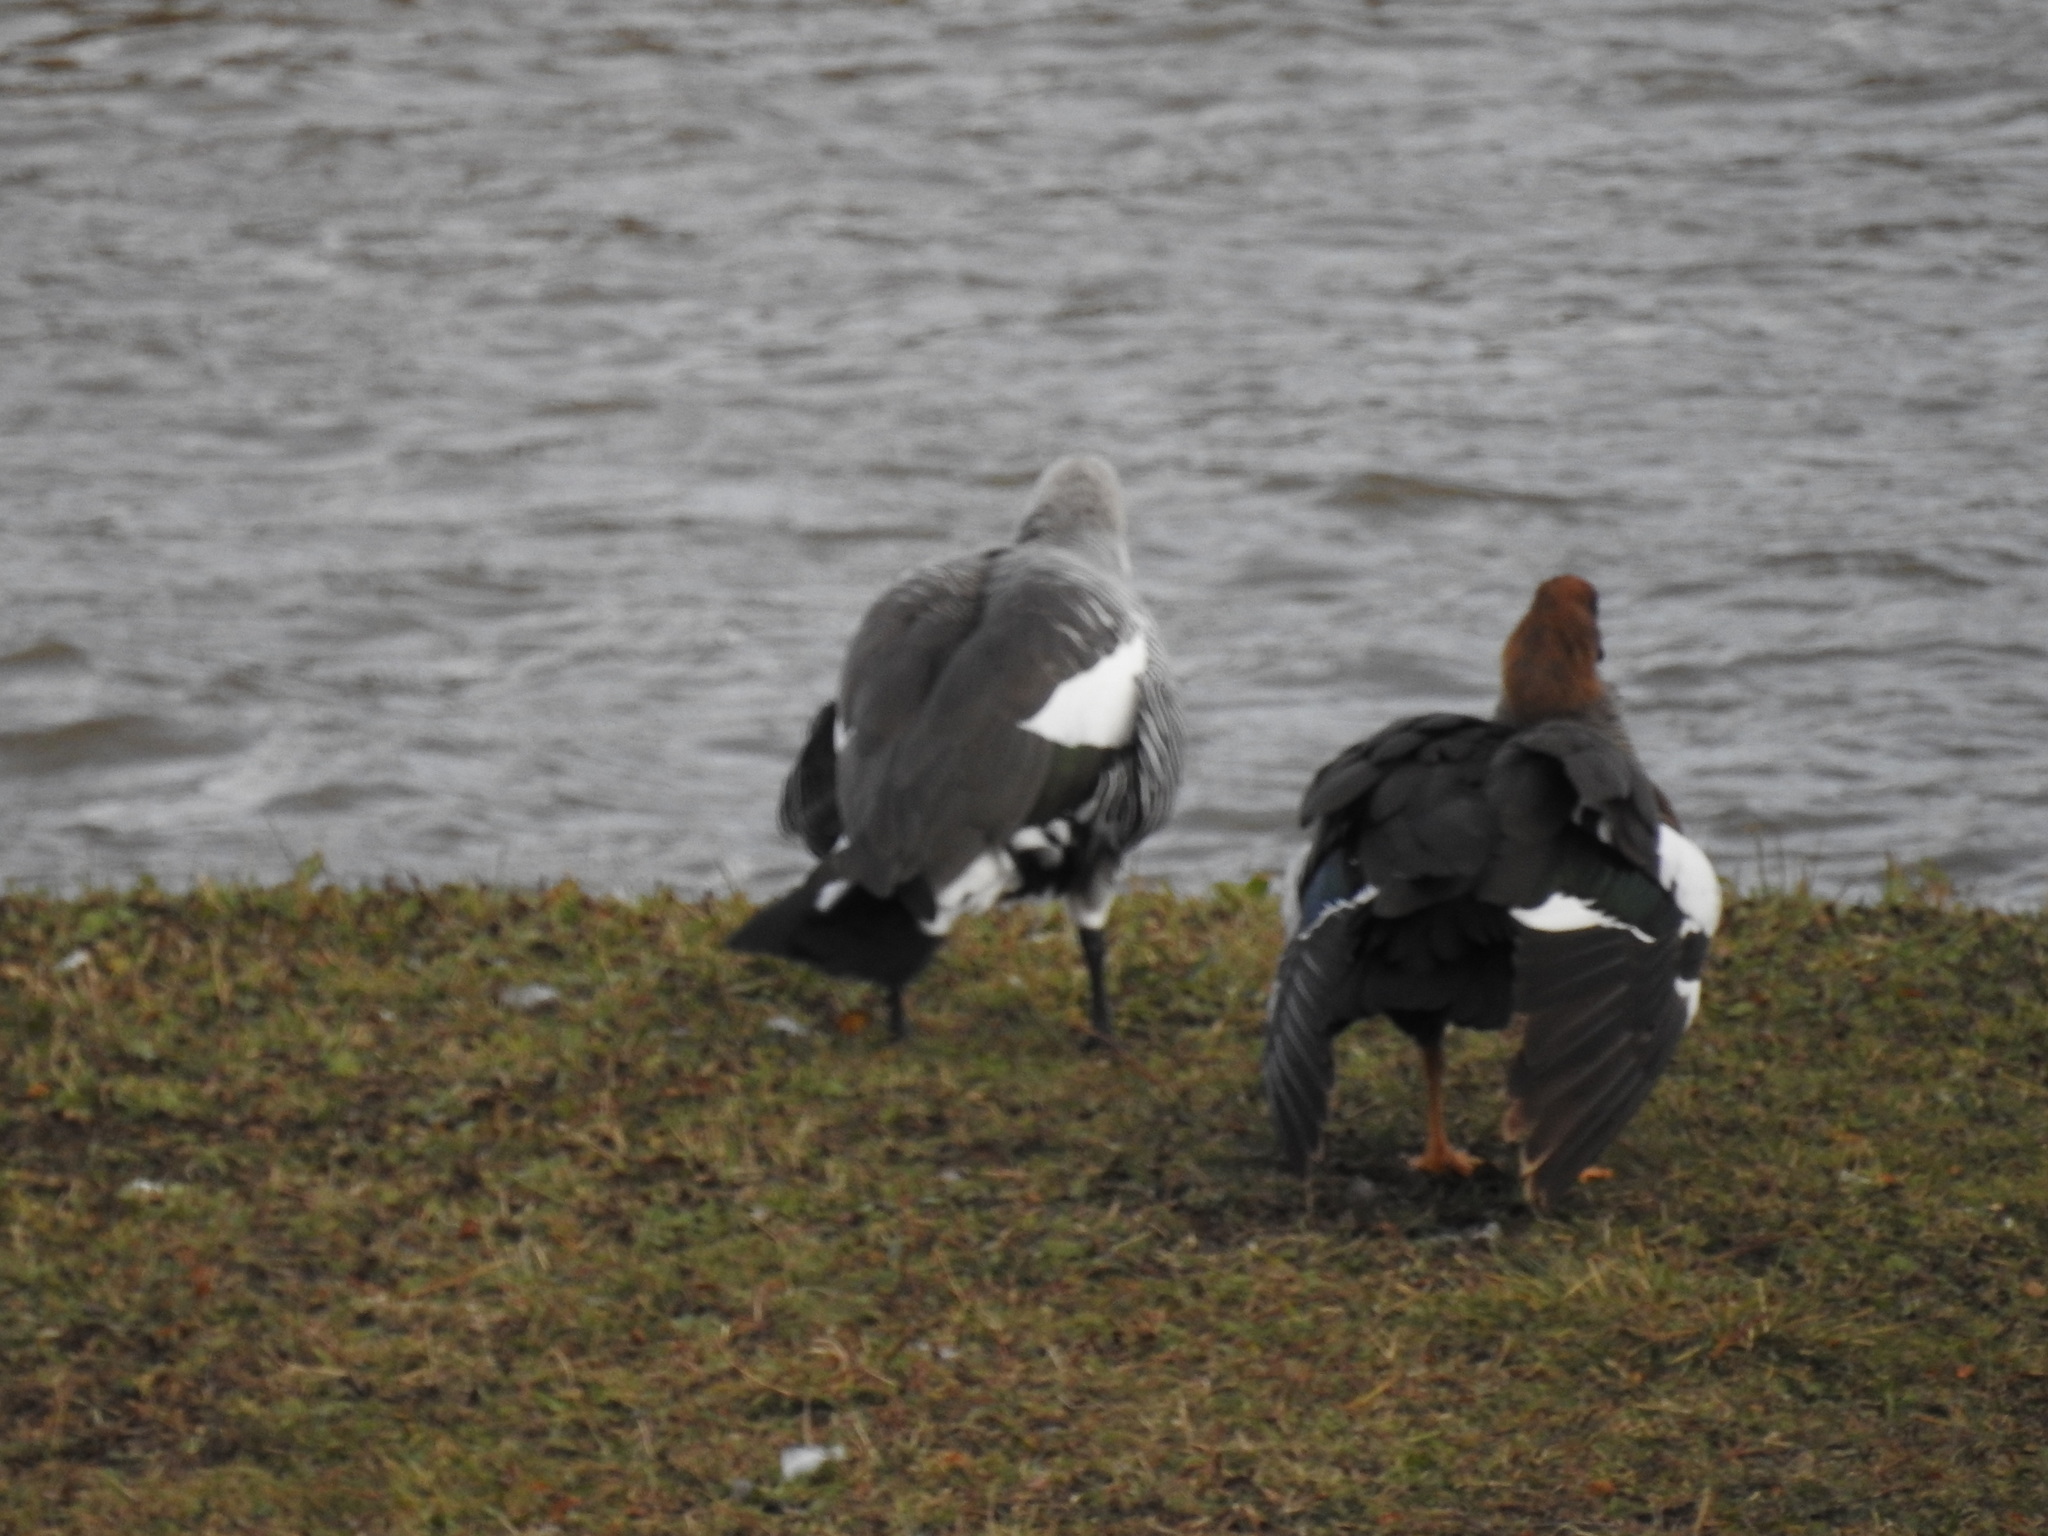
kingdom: Animalia
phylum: Chordata
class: Aves
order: Anseriformes
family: Anatidae
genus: Chloephaga
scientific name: Chloephaga picta
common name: Upland goose
